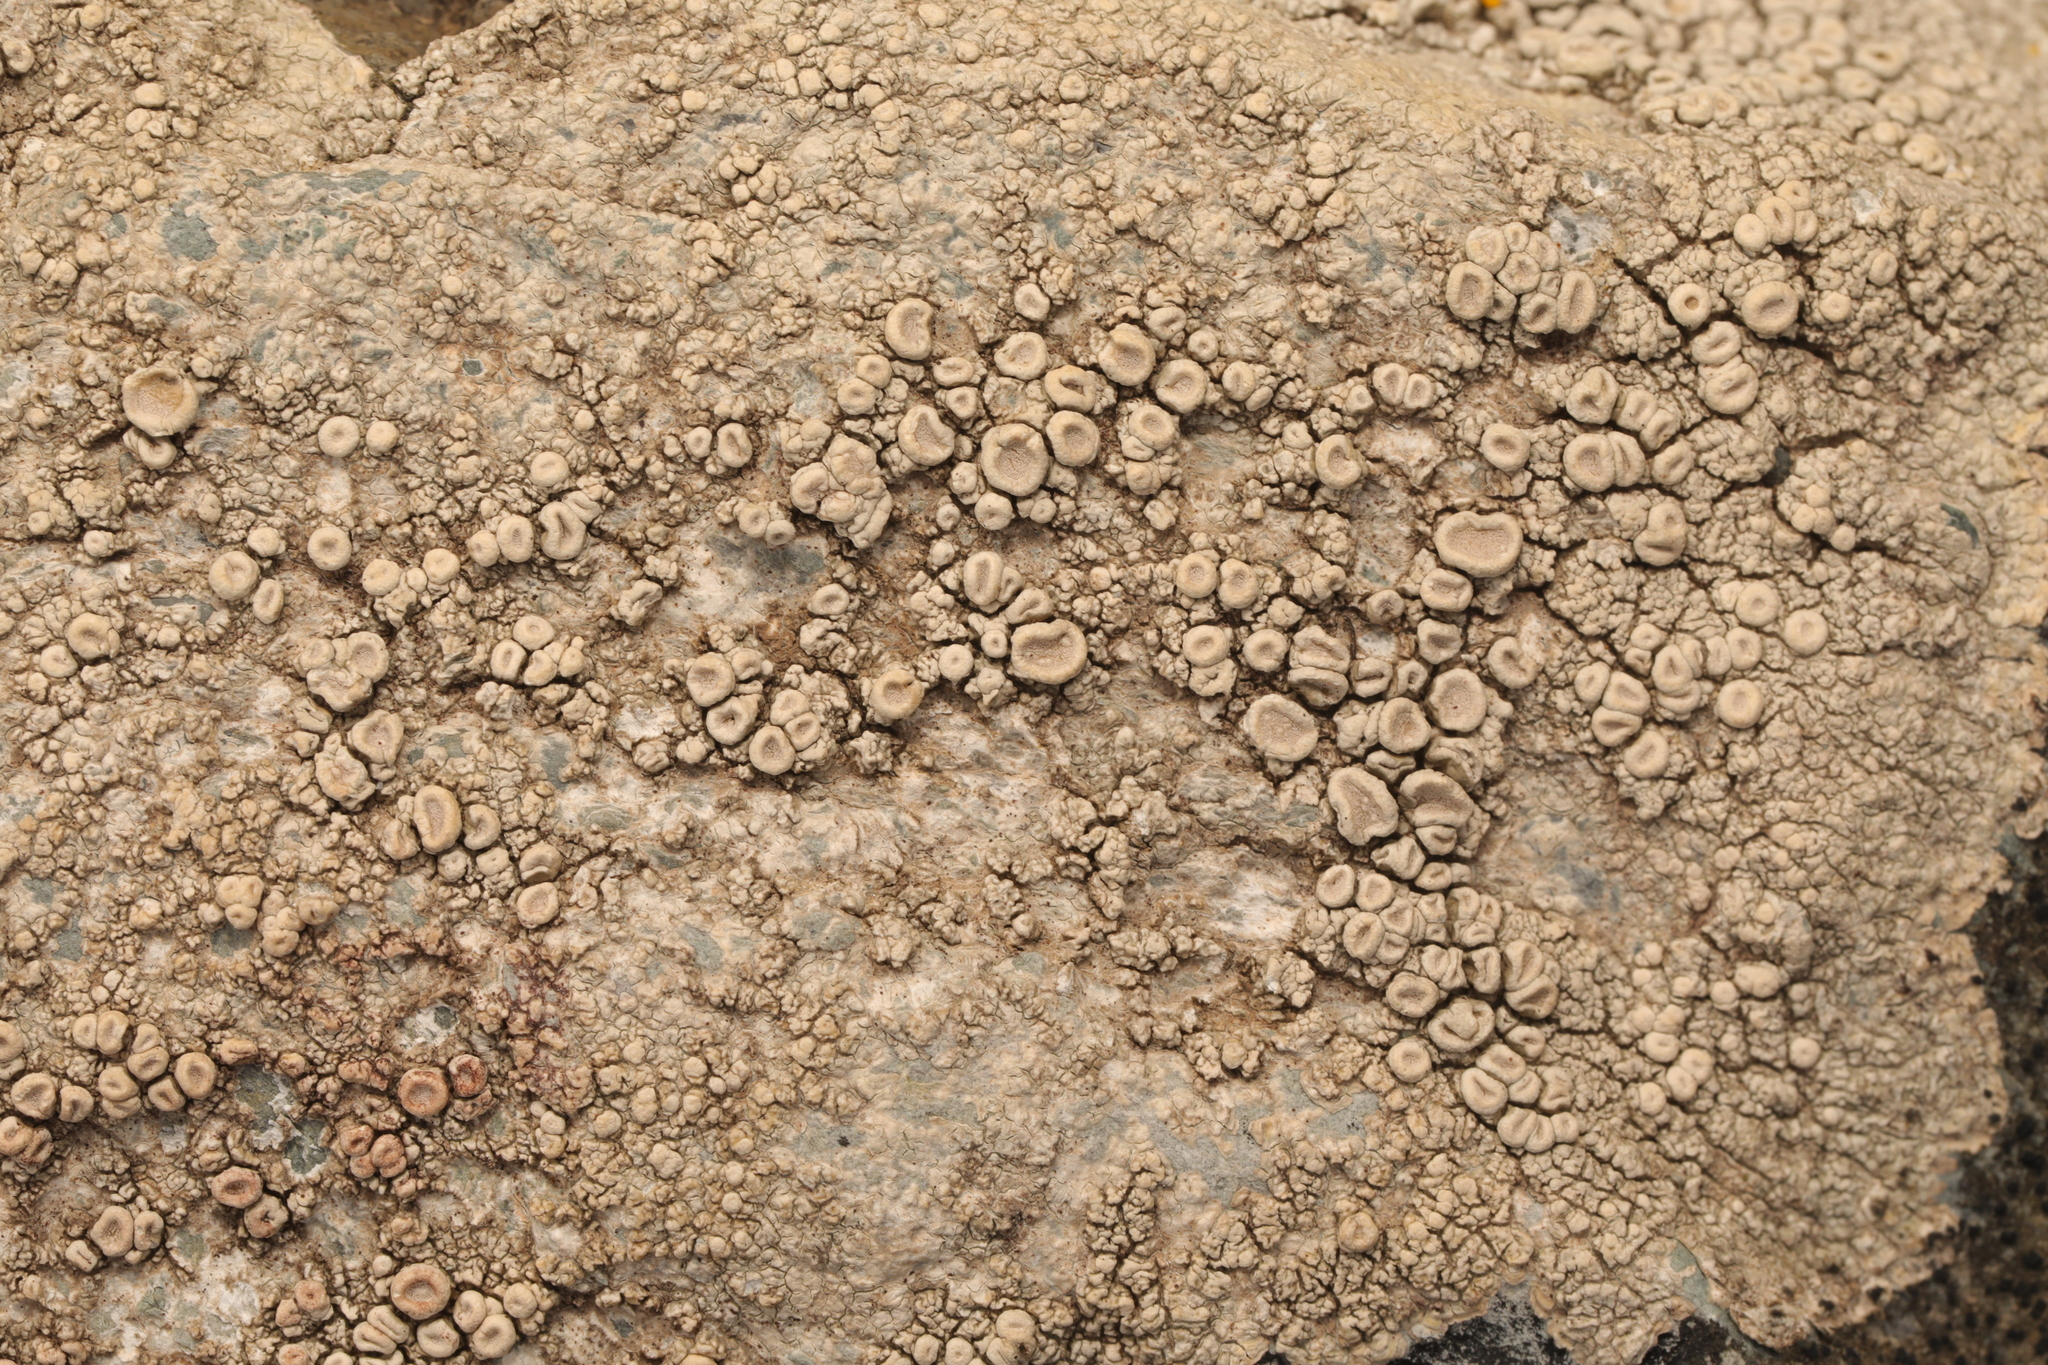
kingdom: Fungi
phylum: Ascomycota
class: Lecanoromycetes
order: Pertusariales
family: Ochrolechiaceae
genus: Ochrolechia
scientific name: Ochrolechia parella
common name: Crab's eye lichen
